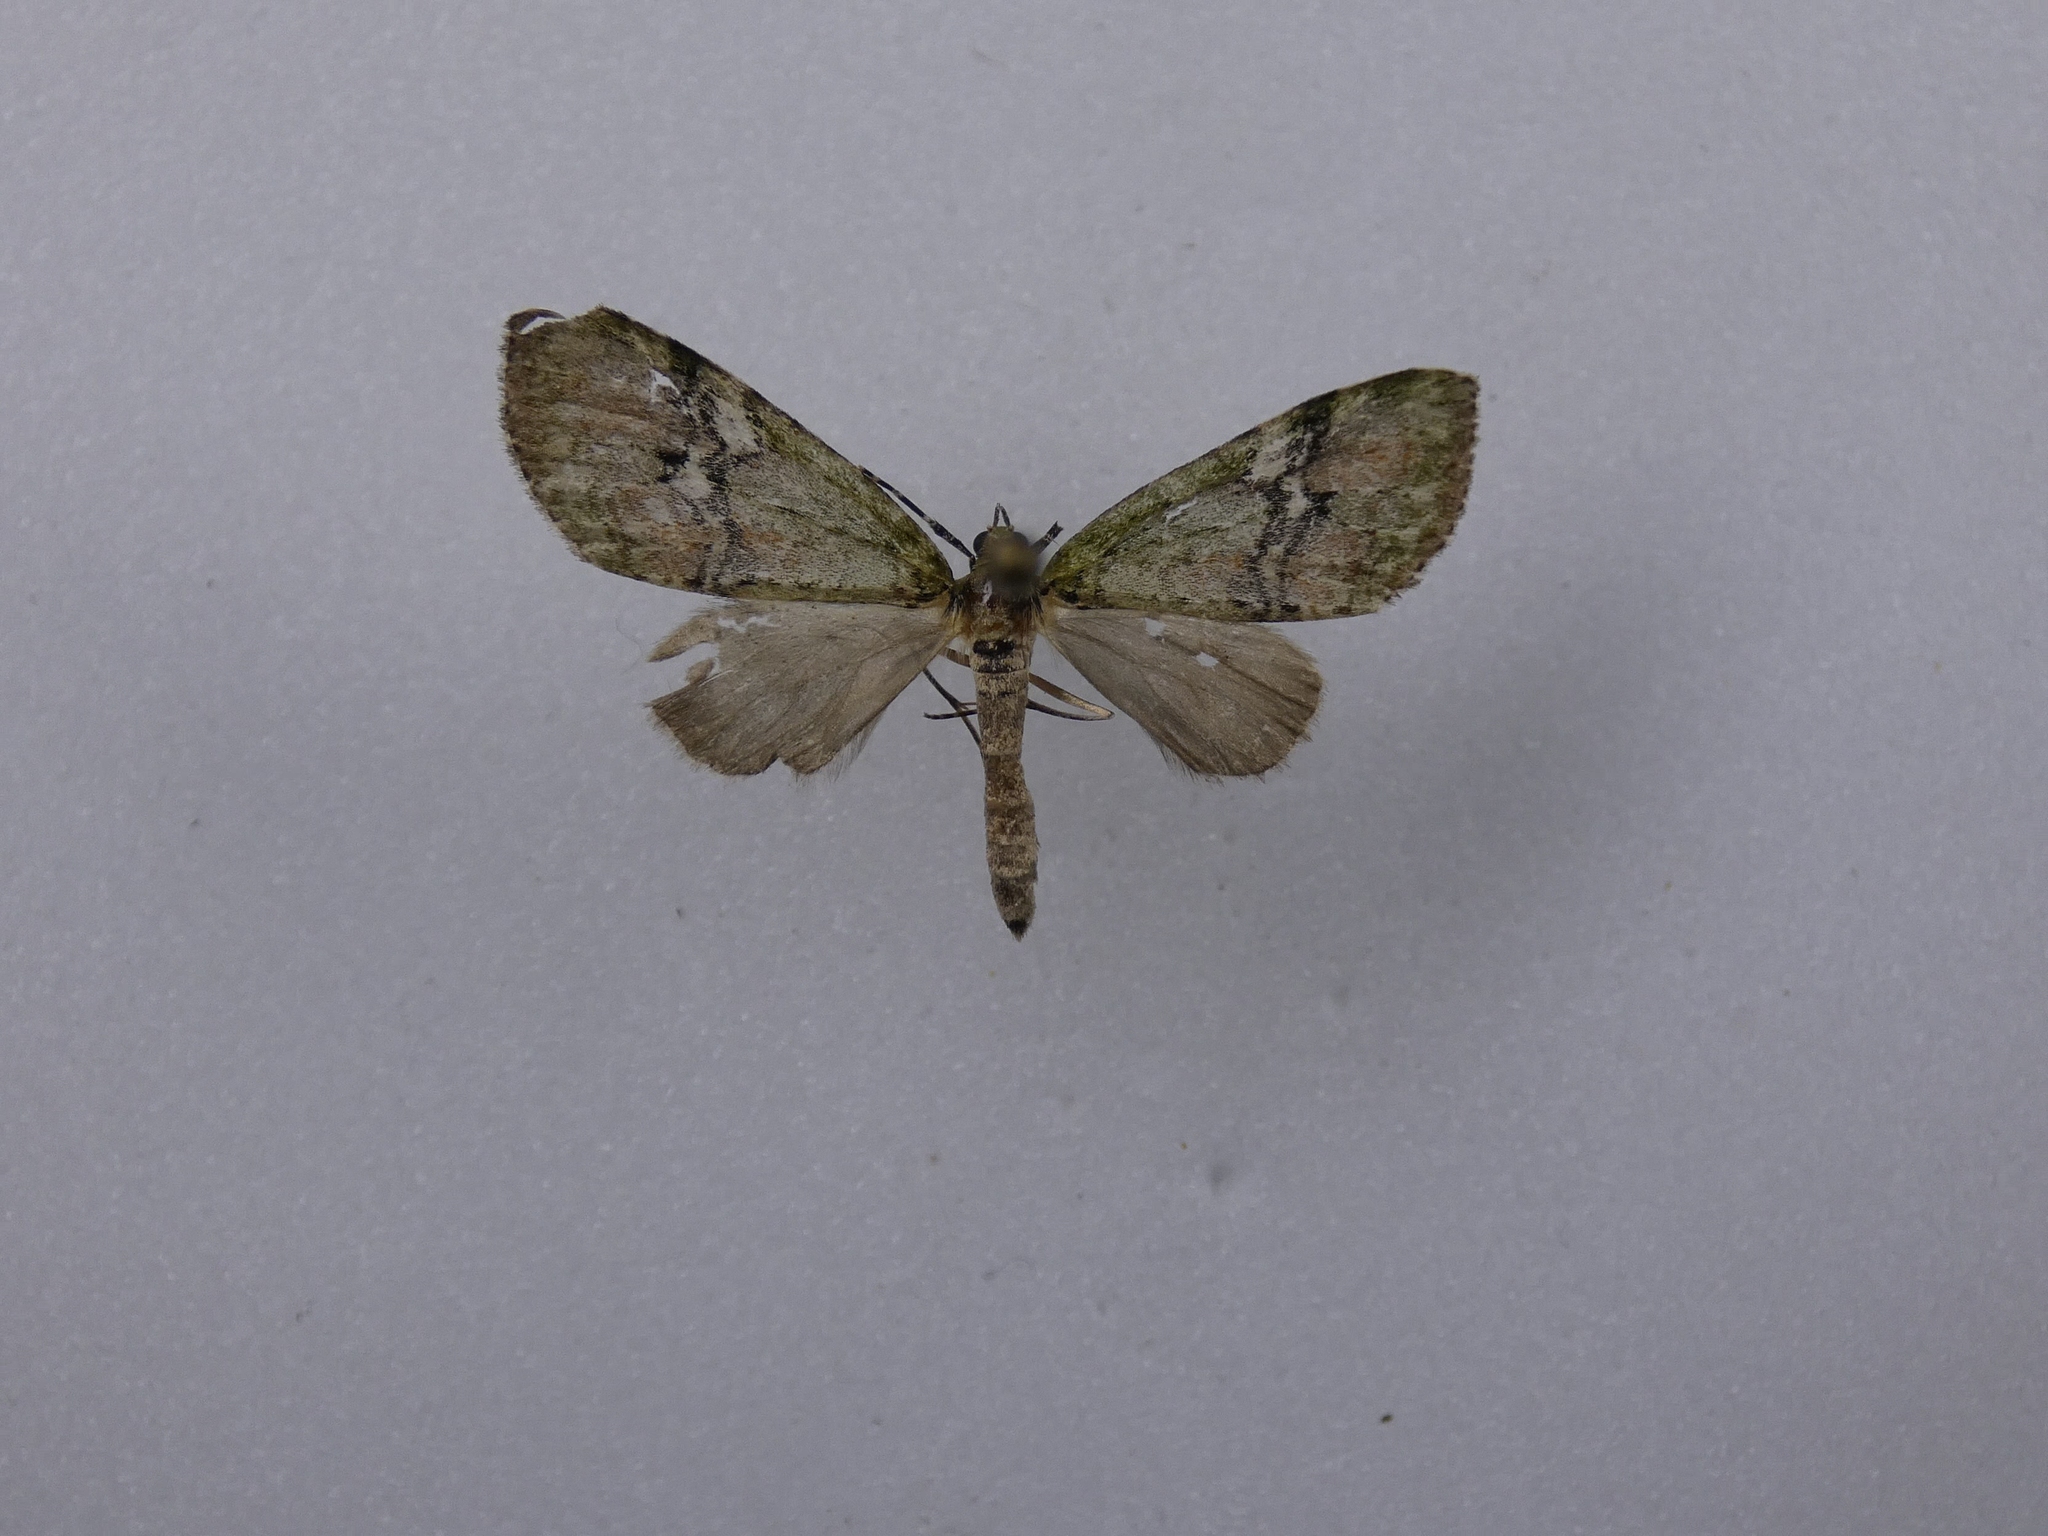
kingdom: Animalia
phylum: Arthropoda
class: Insecta
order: Lepidoptera
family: Geometridae
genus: Tatosoma
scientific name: Tatosoma topea
